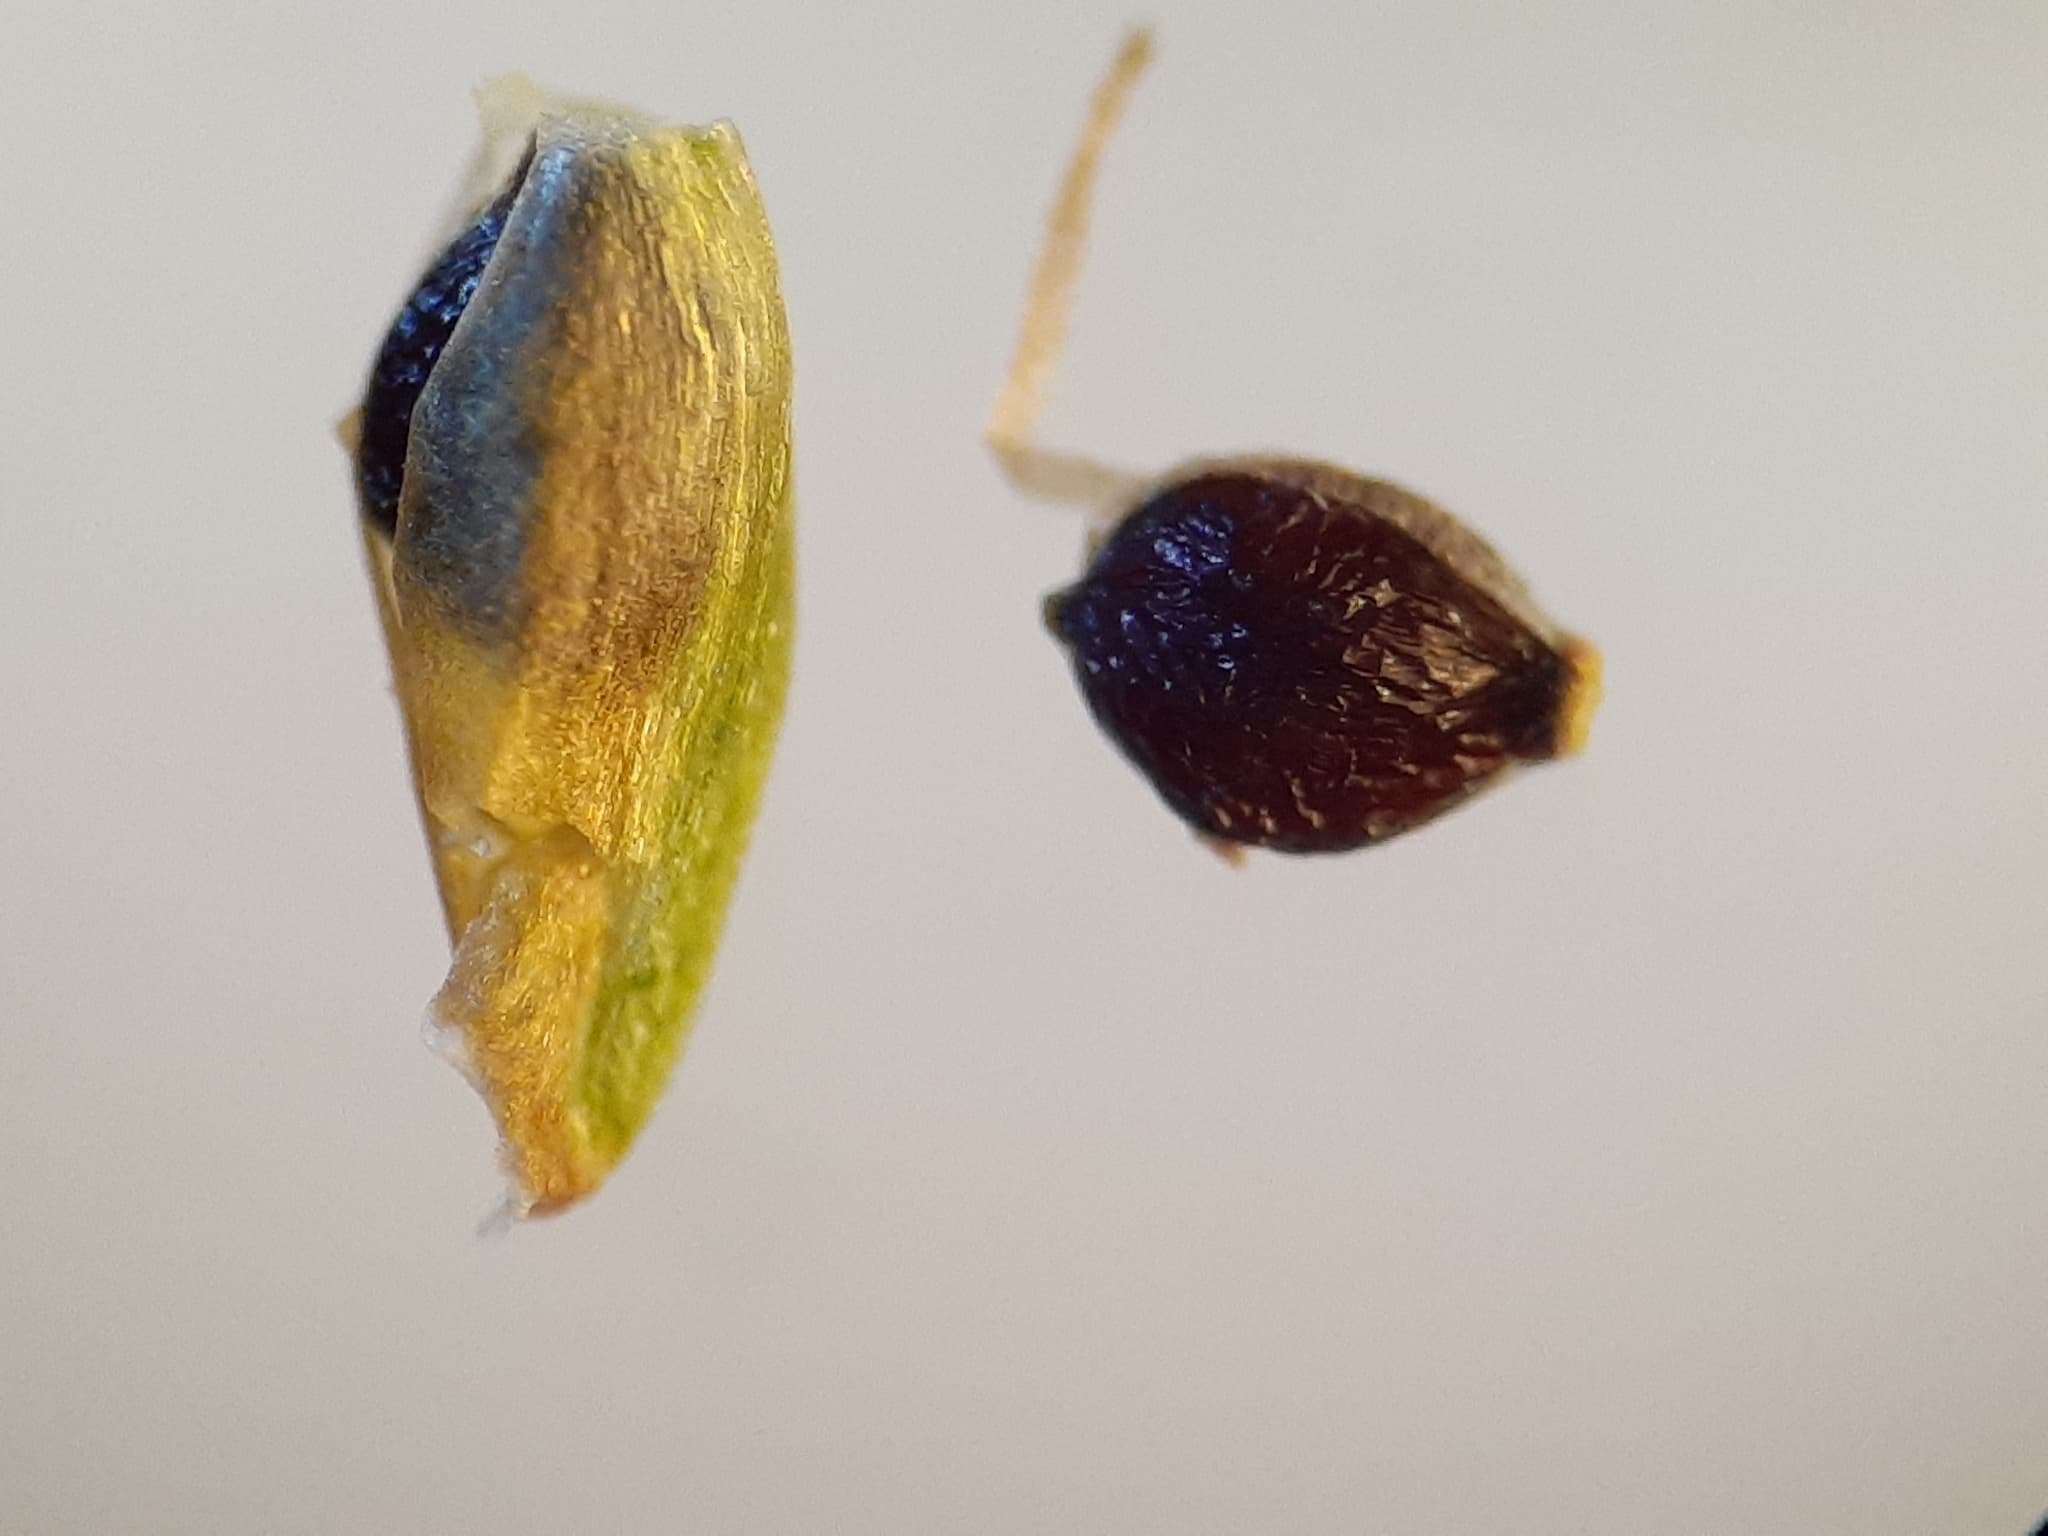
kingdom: Plantae
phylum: Tracheophyta
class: Liliopsida
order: Poales
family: Cyperaceae
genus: Cyperus
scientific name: Cyperus flavescens
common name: Yellow galingale
